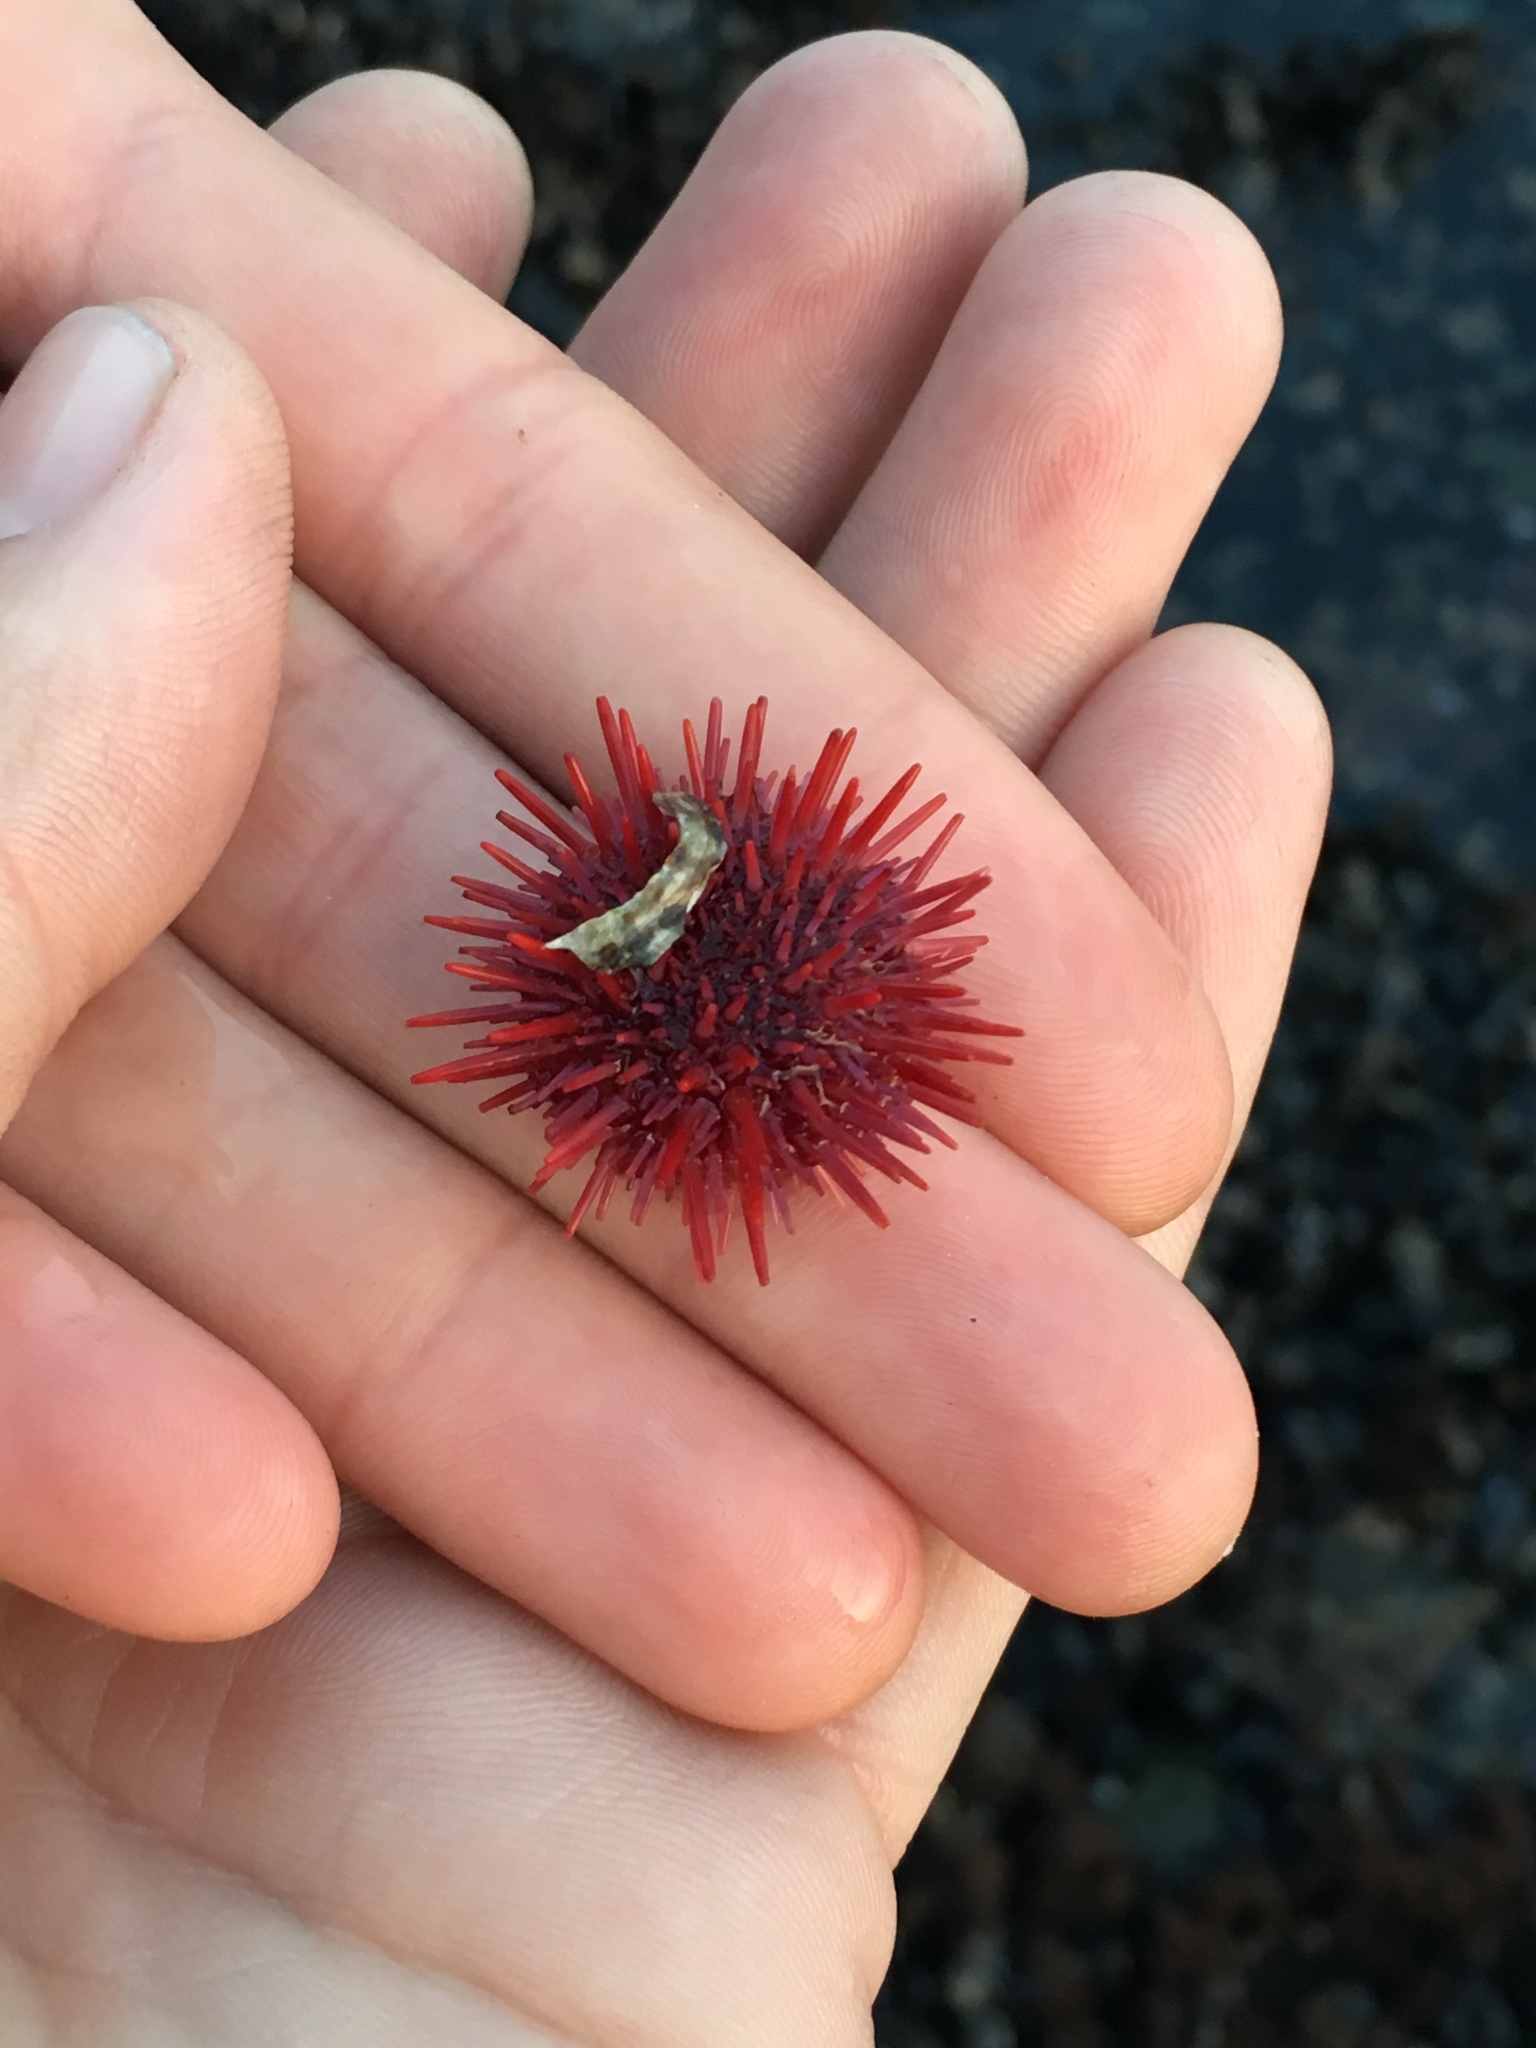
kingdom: Animalia
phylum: Echinodermata
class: Echinoidea
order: Camarodonta
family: Strongylocentrotidae
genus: Mesocentrotus
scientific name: Mesocentrotus franciscanus
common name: Red sea urchin
